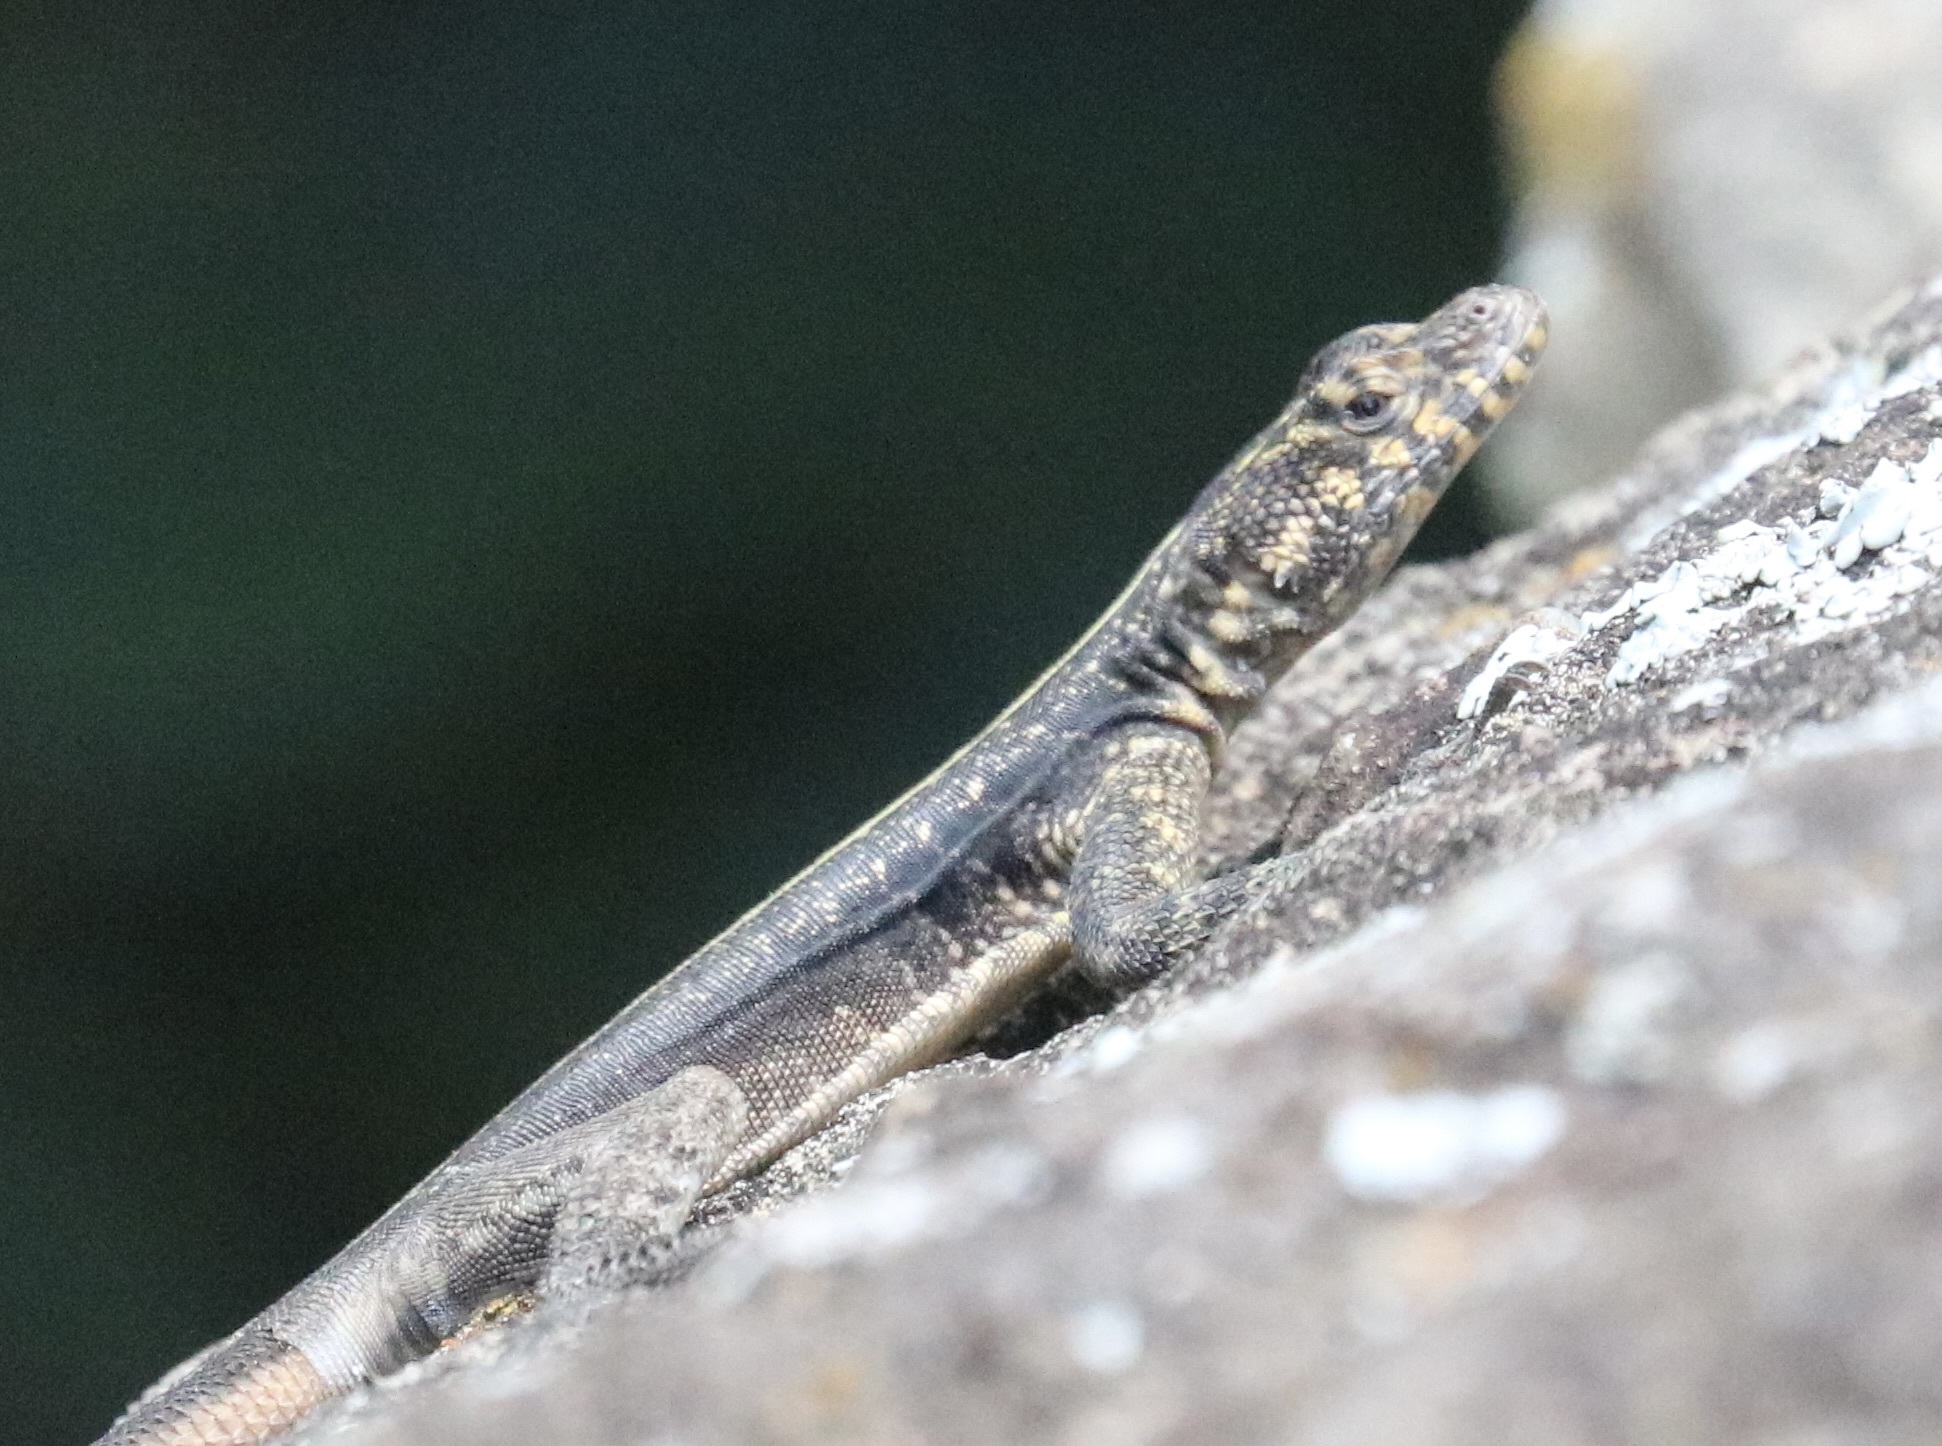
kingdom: Animalia
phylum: Chordata
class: Squamata
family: Tropiduridae
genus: Tropidurus
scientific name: Tropidurus semitaeniatus
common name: Striped lava lizard
